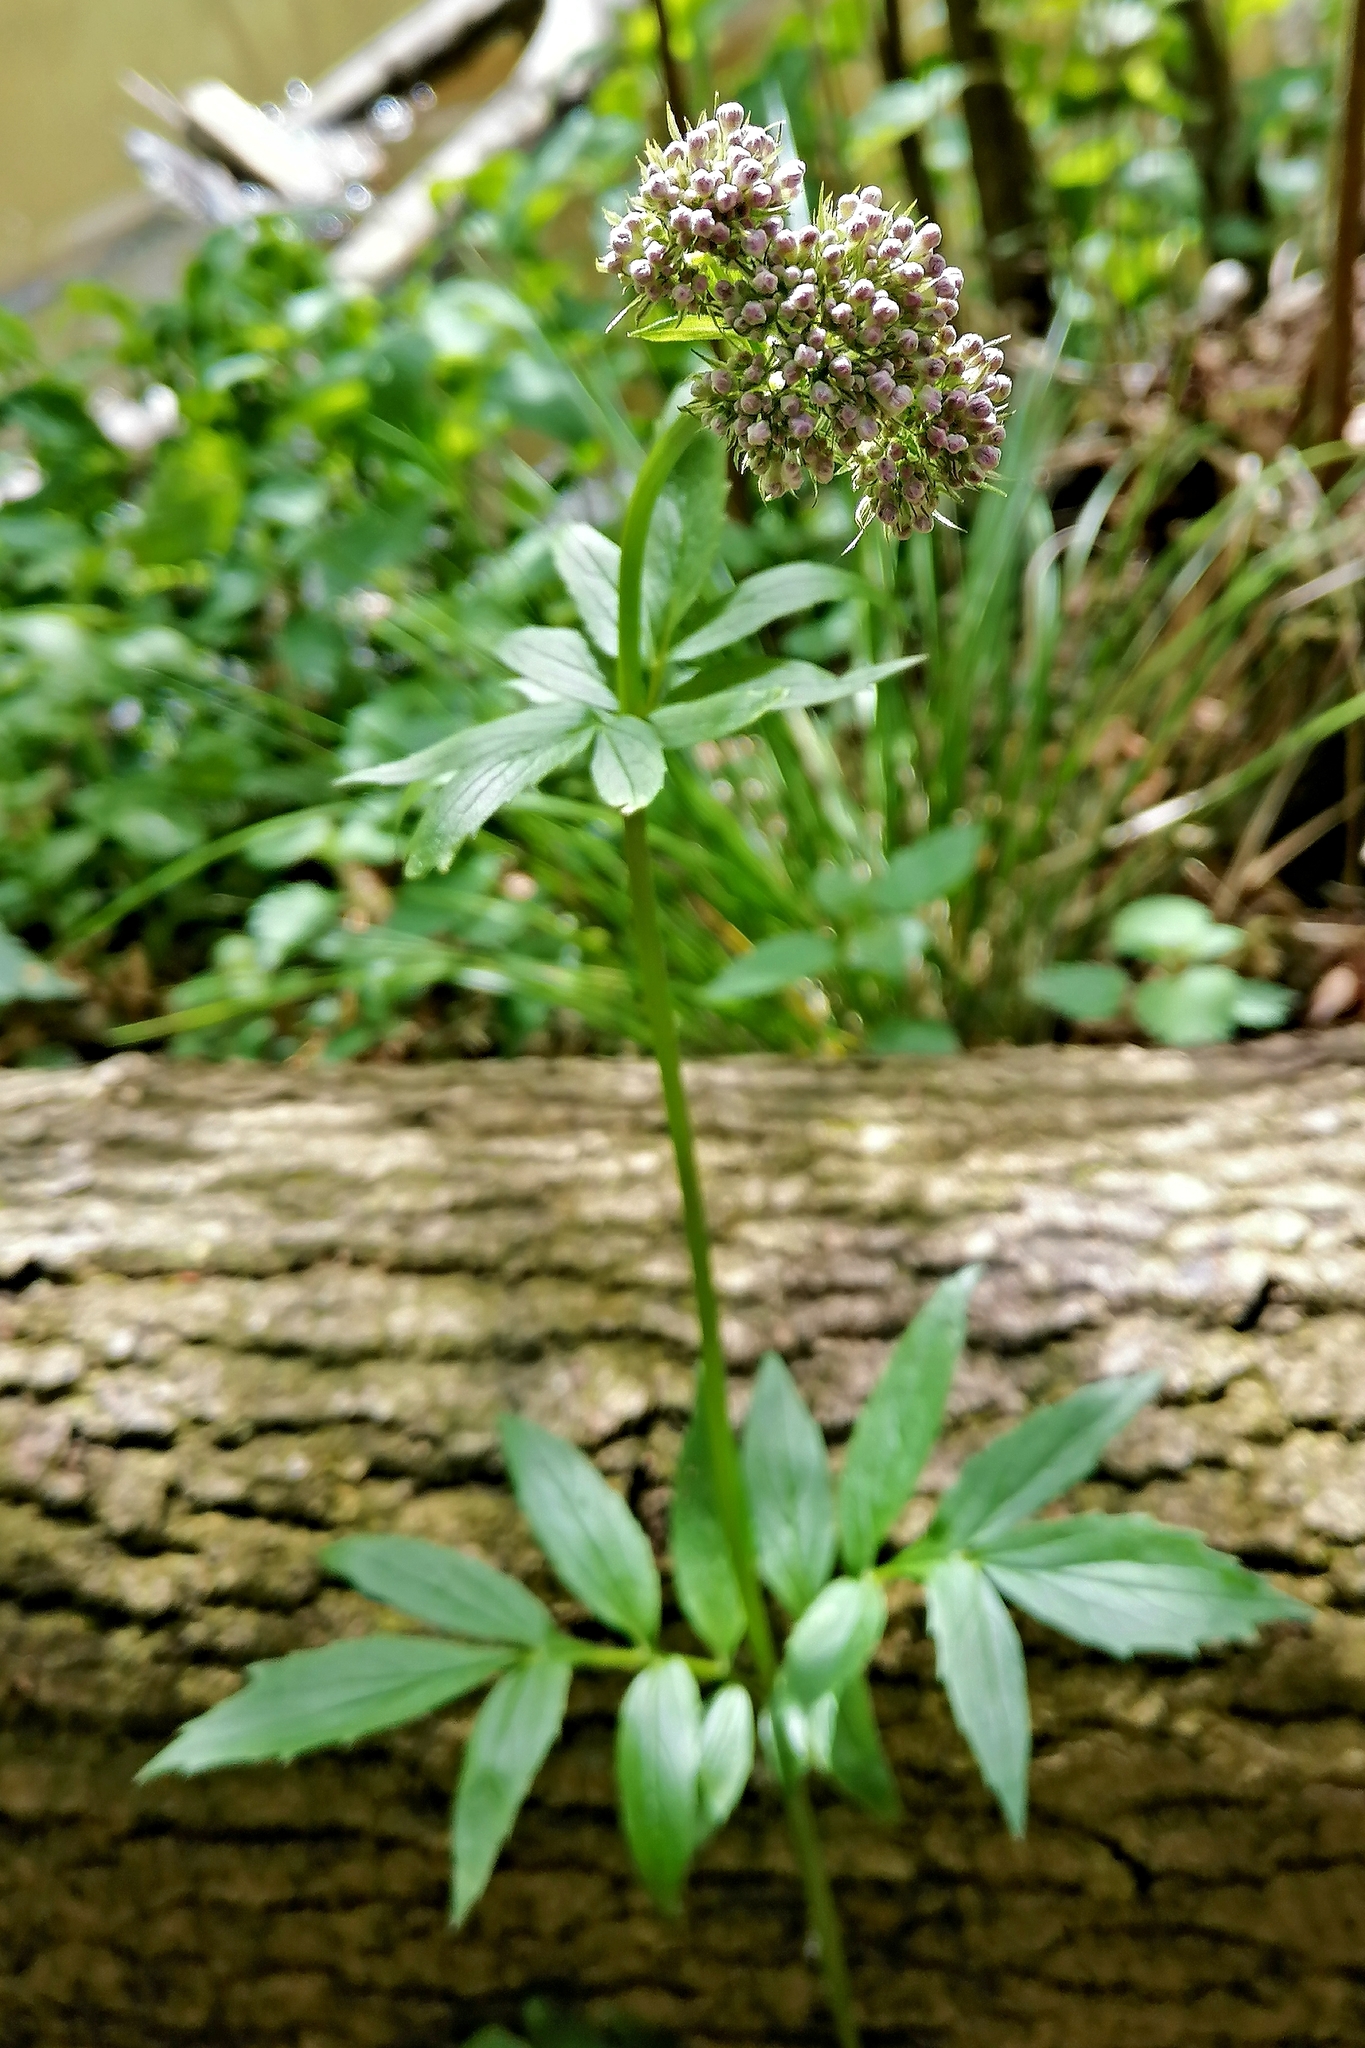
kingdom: Plantae
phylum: Tracheophyta
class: Magnoliopsida
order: Dipsacales
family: Caprifoliaceae
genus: Valeriana
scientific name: Valeriana excelsa
